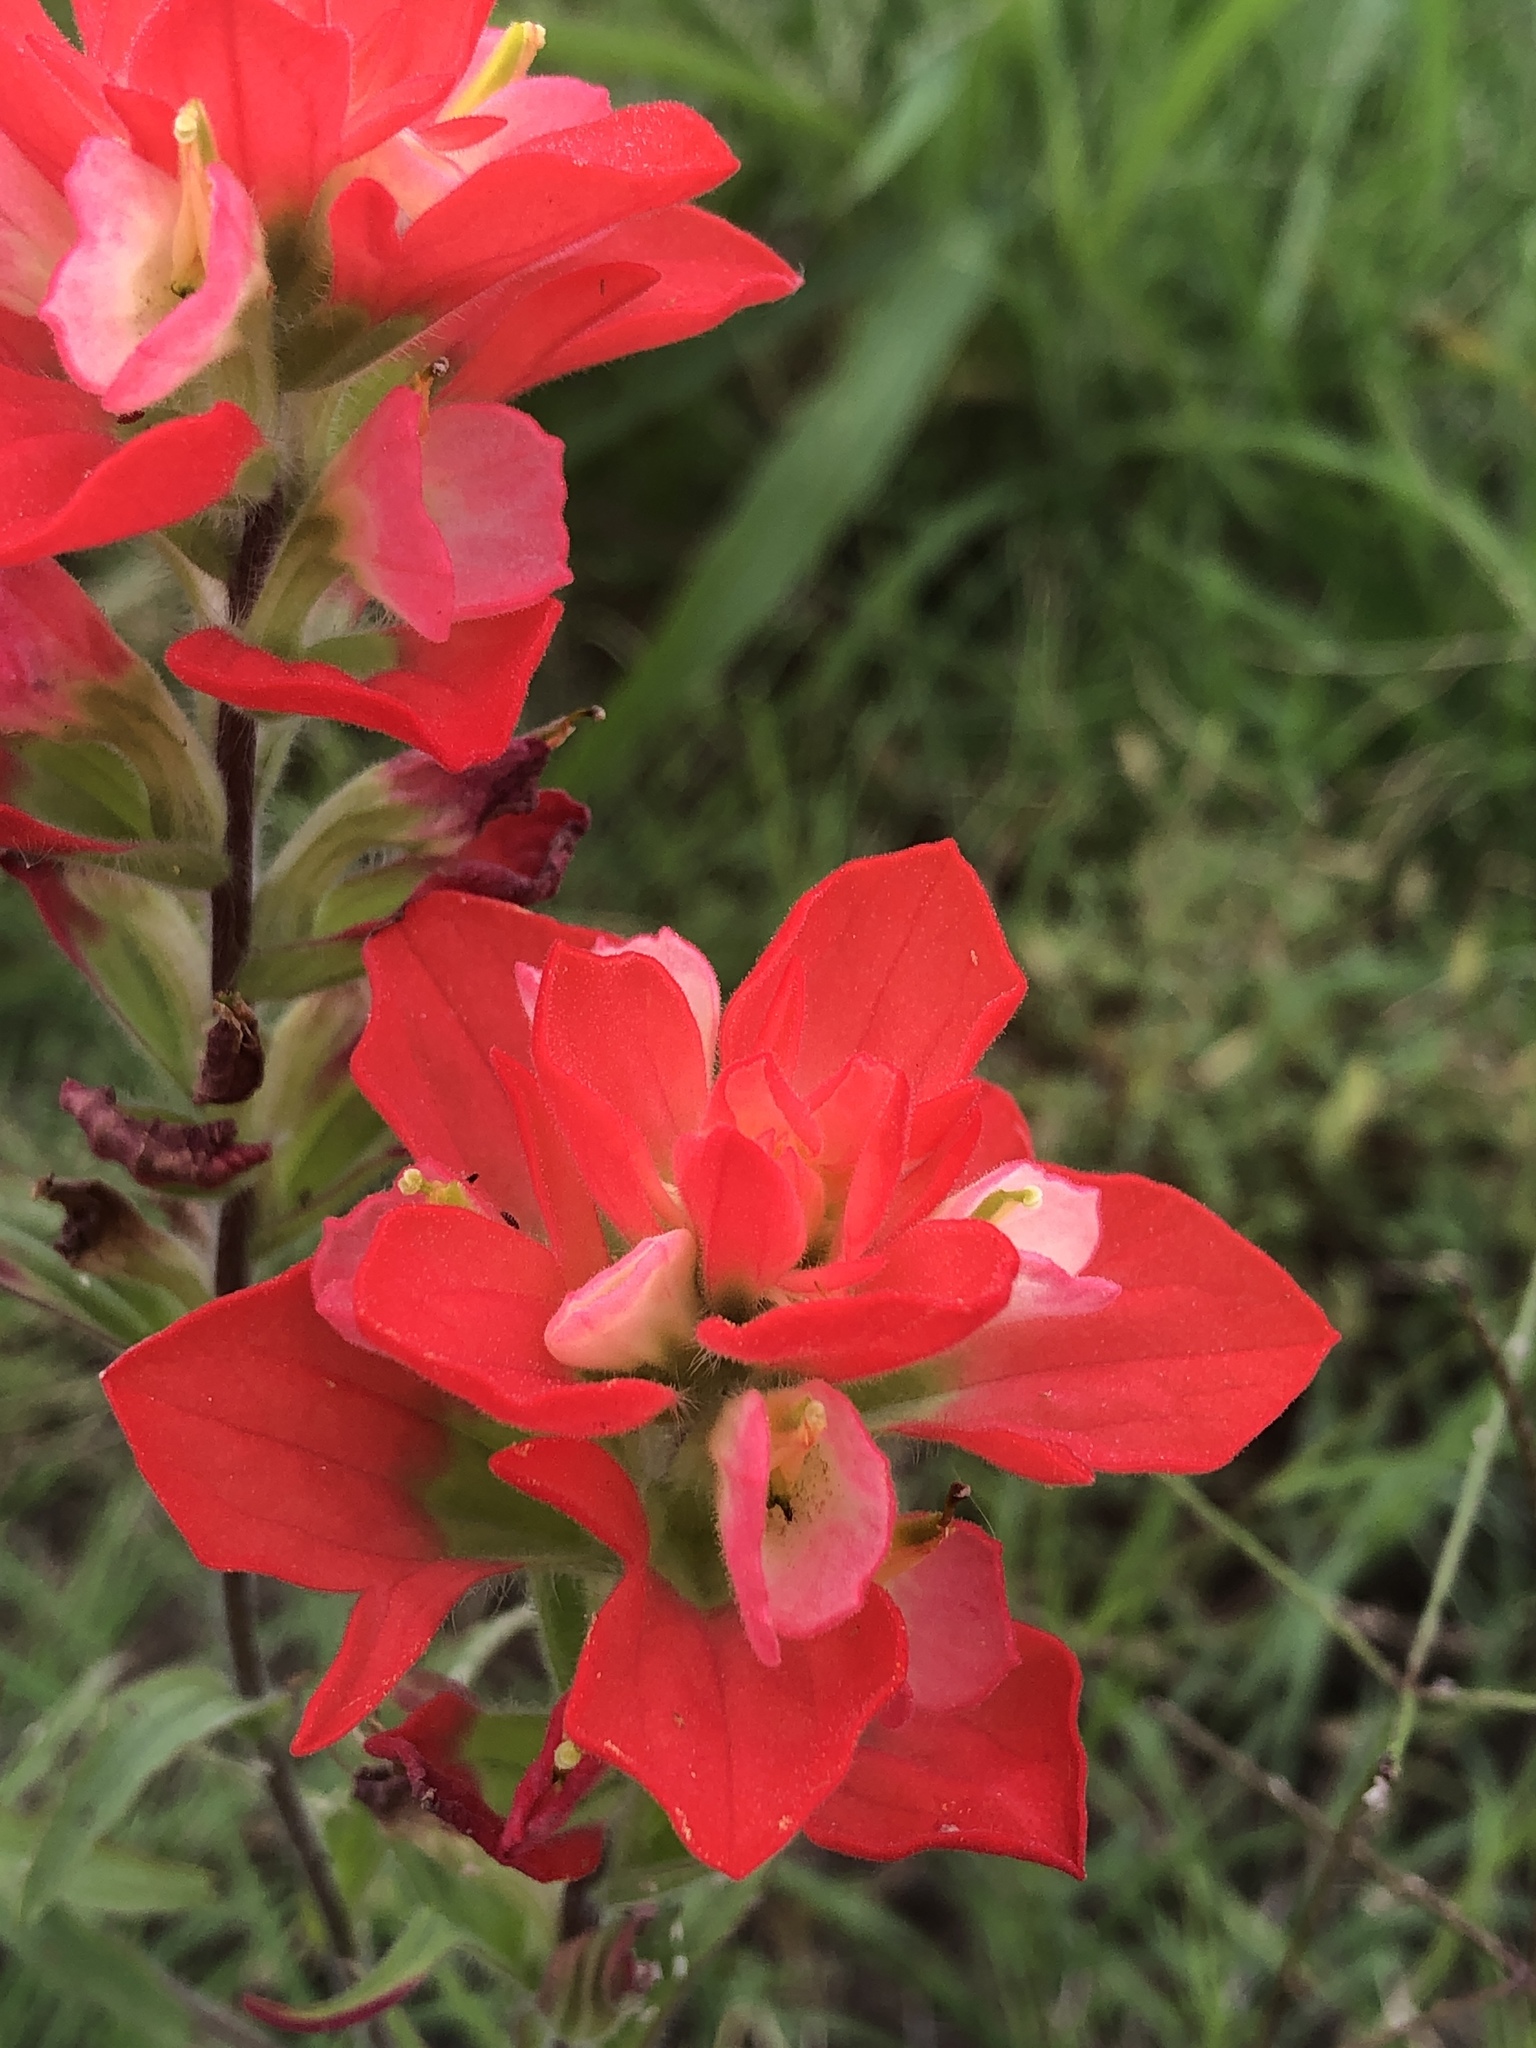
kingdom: Plantae
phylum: Tracheophyta
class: Magnoliopsida
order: Lamiales
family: Orobanchaceae
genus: Castilleja
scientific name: Castilleja indivisa
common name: Texas paintbrush
